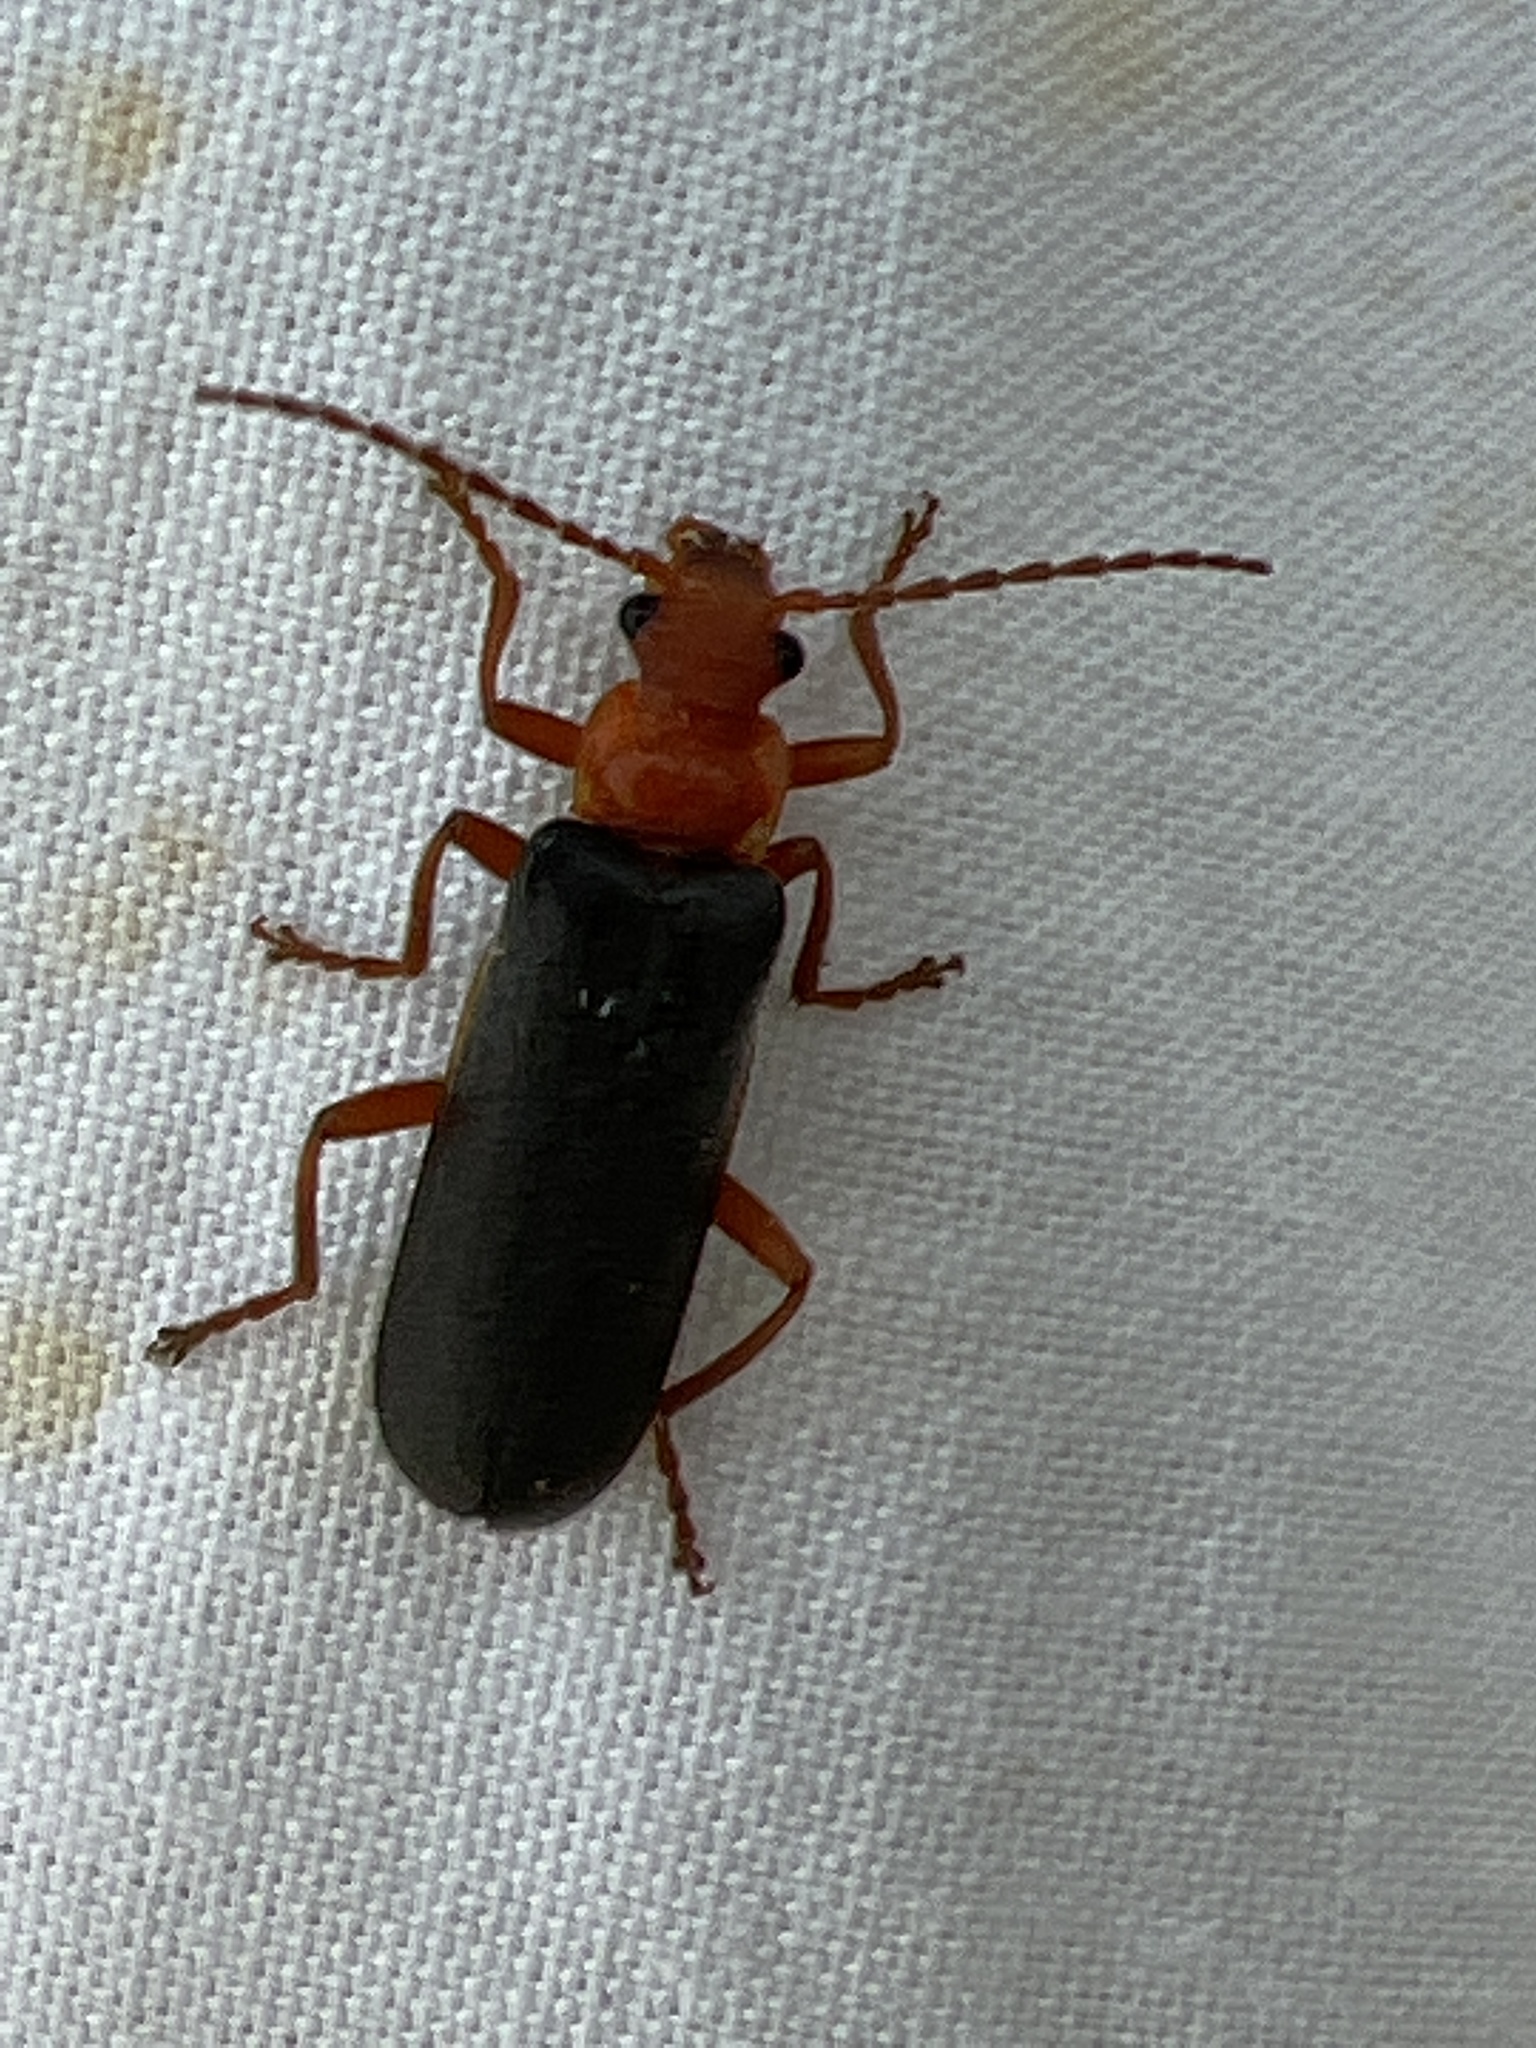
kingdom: Animalia
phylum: Arthropoda
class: Insecta
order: Coleoptera
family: Cantharidae
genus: Podabrus
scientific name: Podabrus pruinosus
